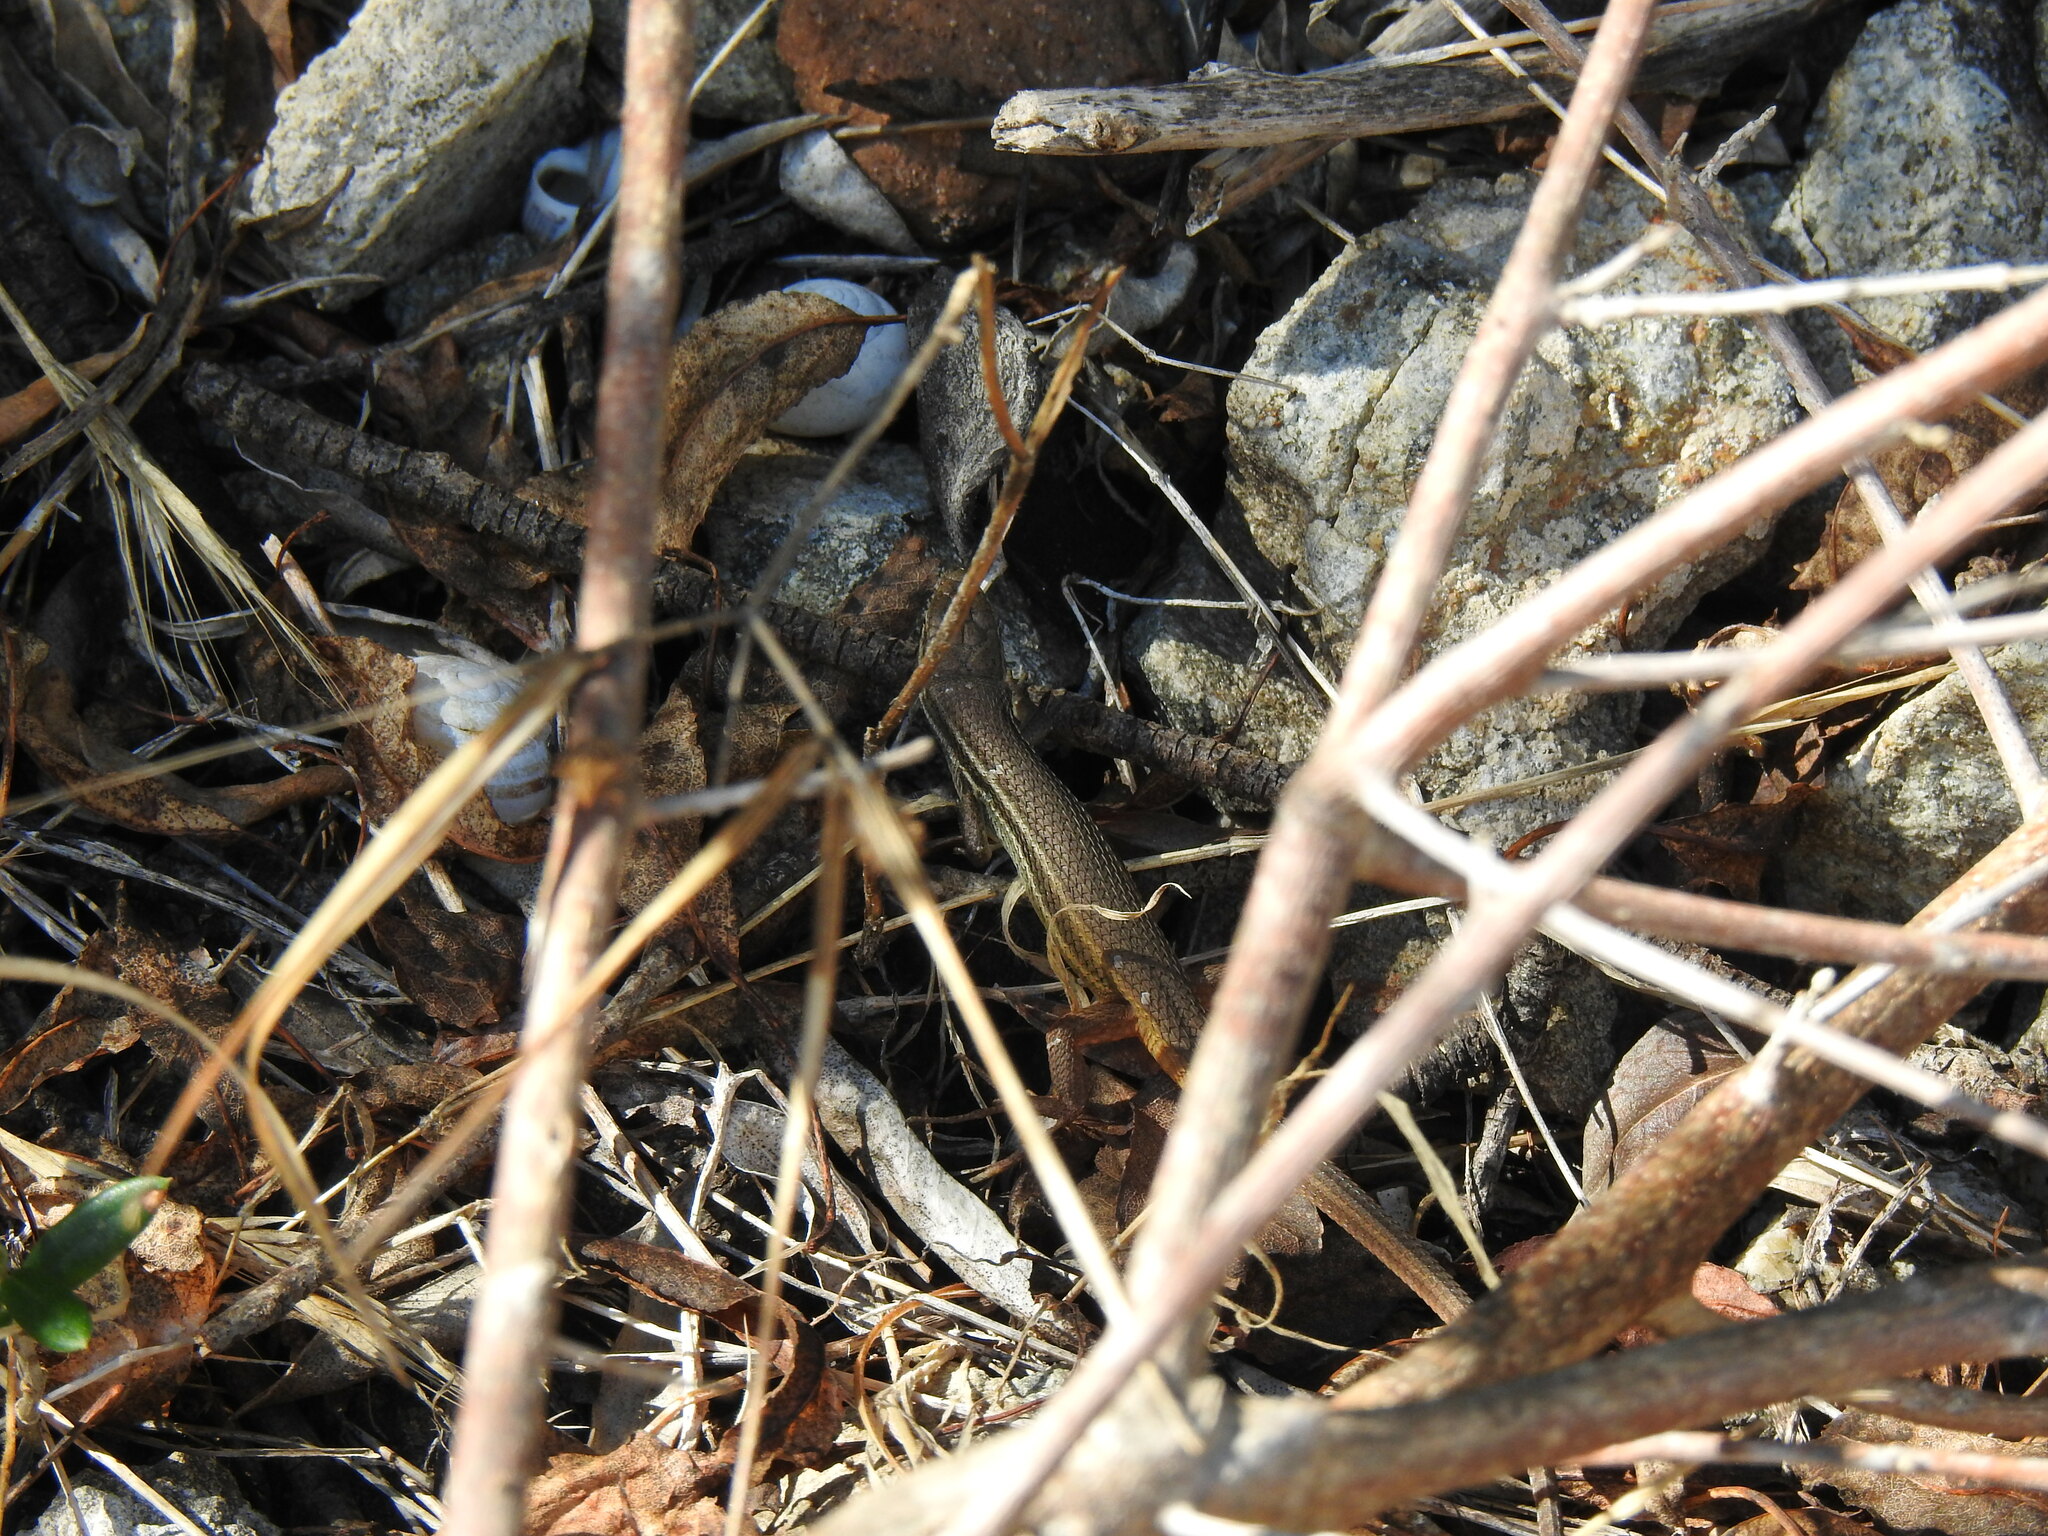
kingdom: Animalia
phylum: Chordata
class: Squamata
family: Lacertidae
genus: Psammodromus
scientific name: Psammodromus algirus
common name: Algerian psammodromus
